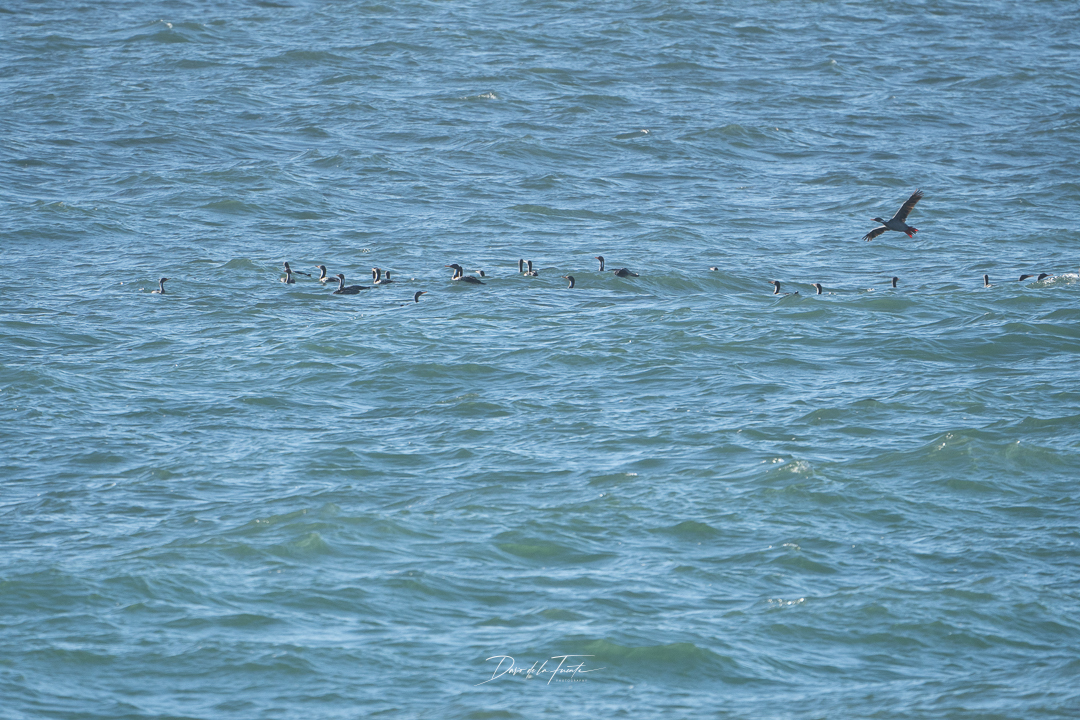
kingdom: Animalia
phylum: Chordata
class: Aves
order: Suliformes
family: Phalacrocoracidae
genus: Phalacrocorax
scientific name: Phalacrocorax gaimardi
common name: Red-legged cormorant
